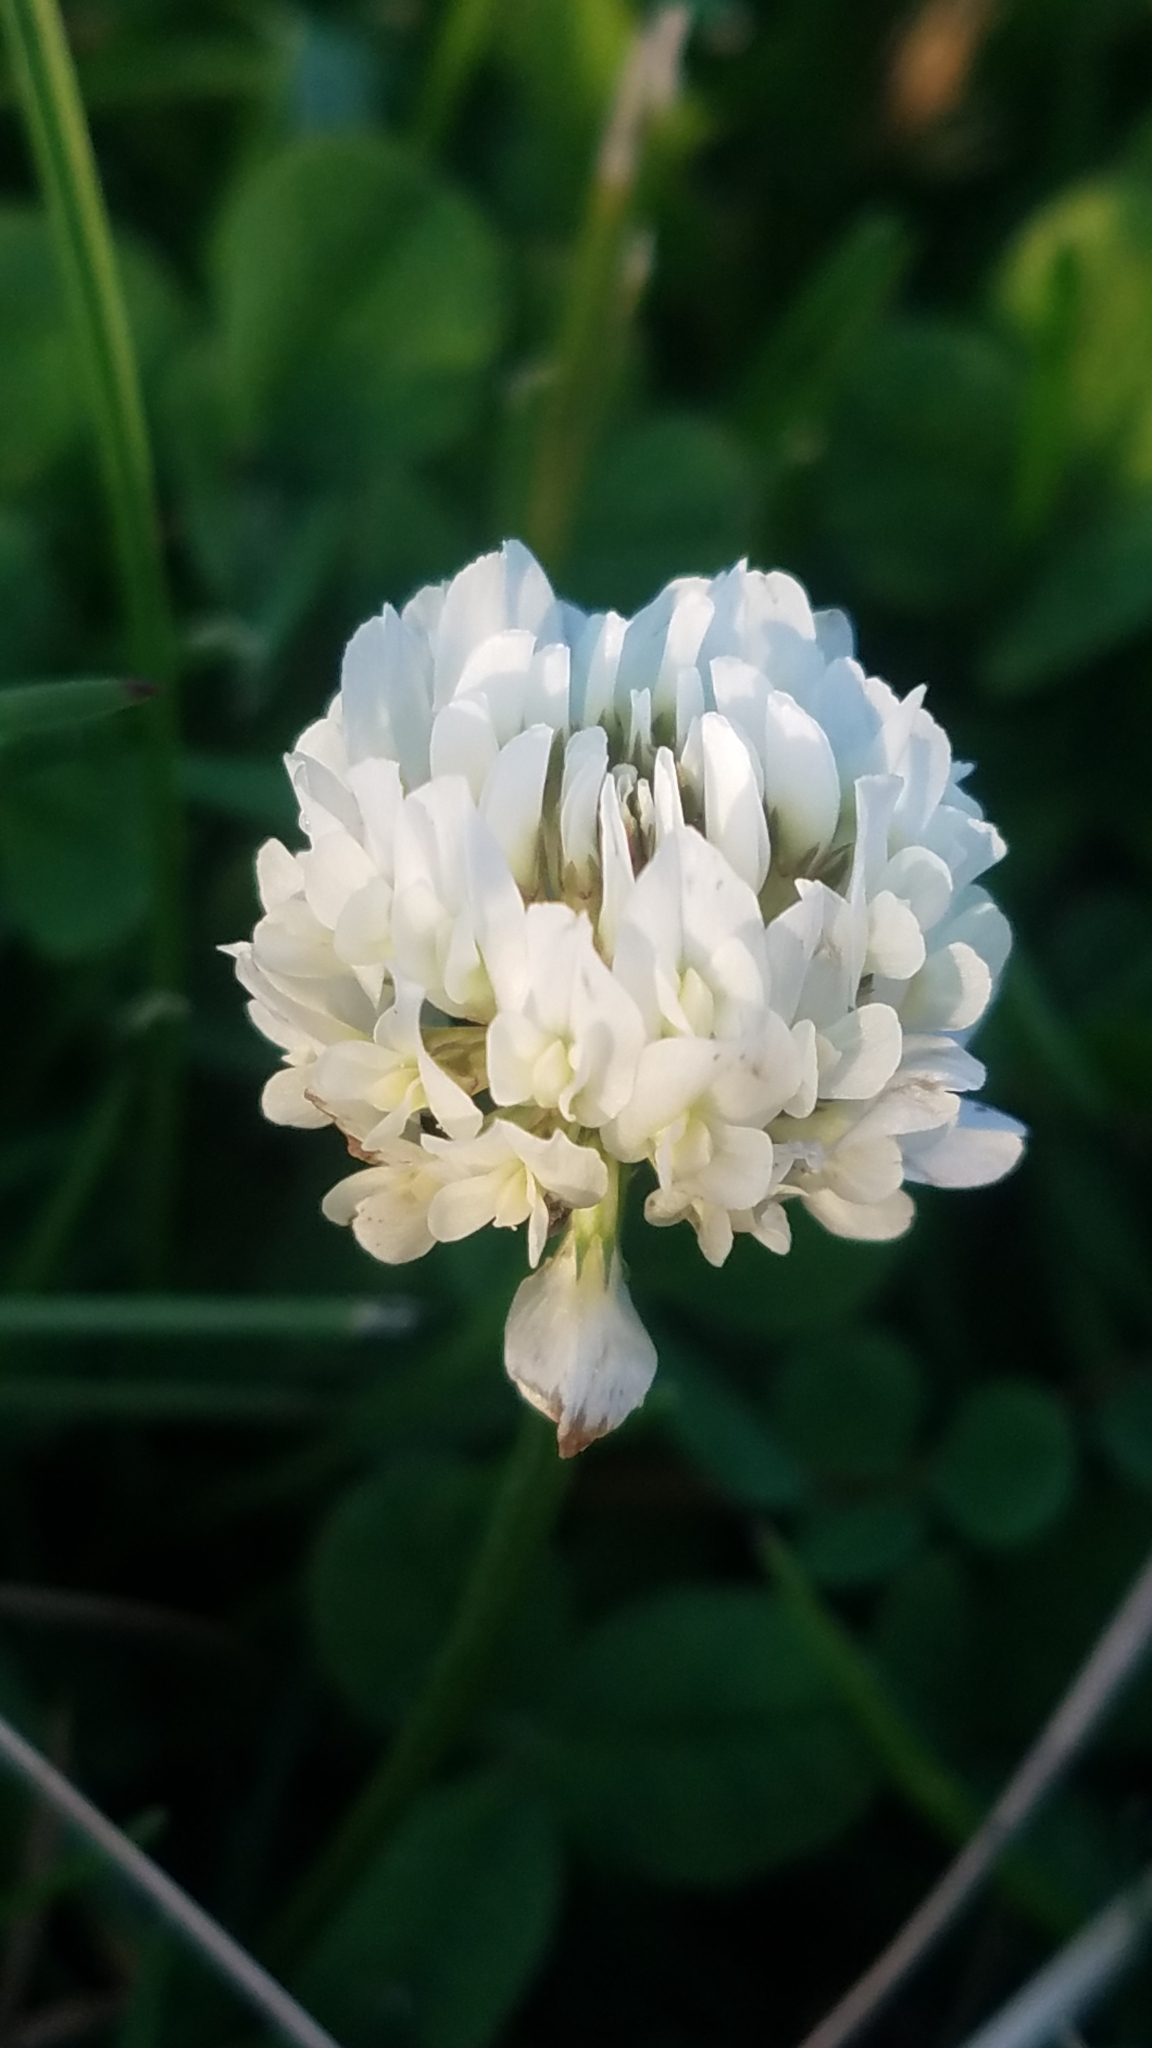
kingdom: Plantae
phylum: Tracheophyta
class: Magnoliopsida
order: Fabales
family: Fabaceae
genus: Trifolium
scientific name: Trifolium repens
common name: White clover
